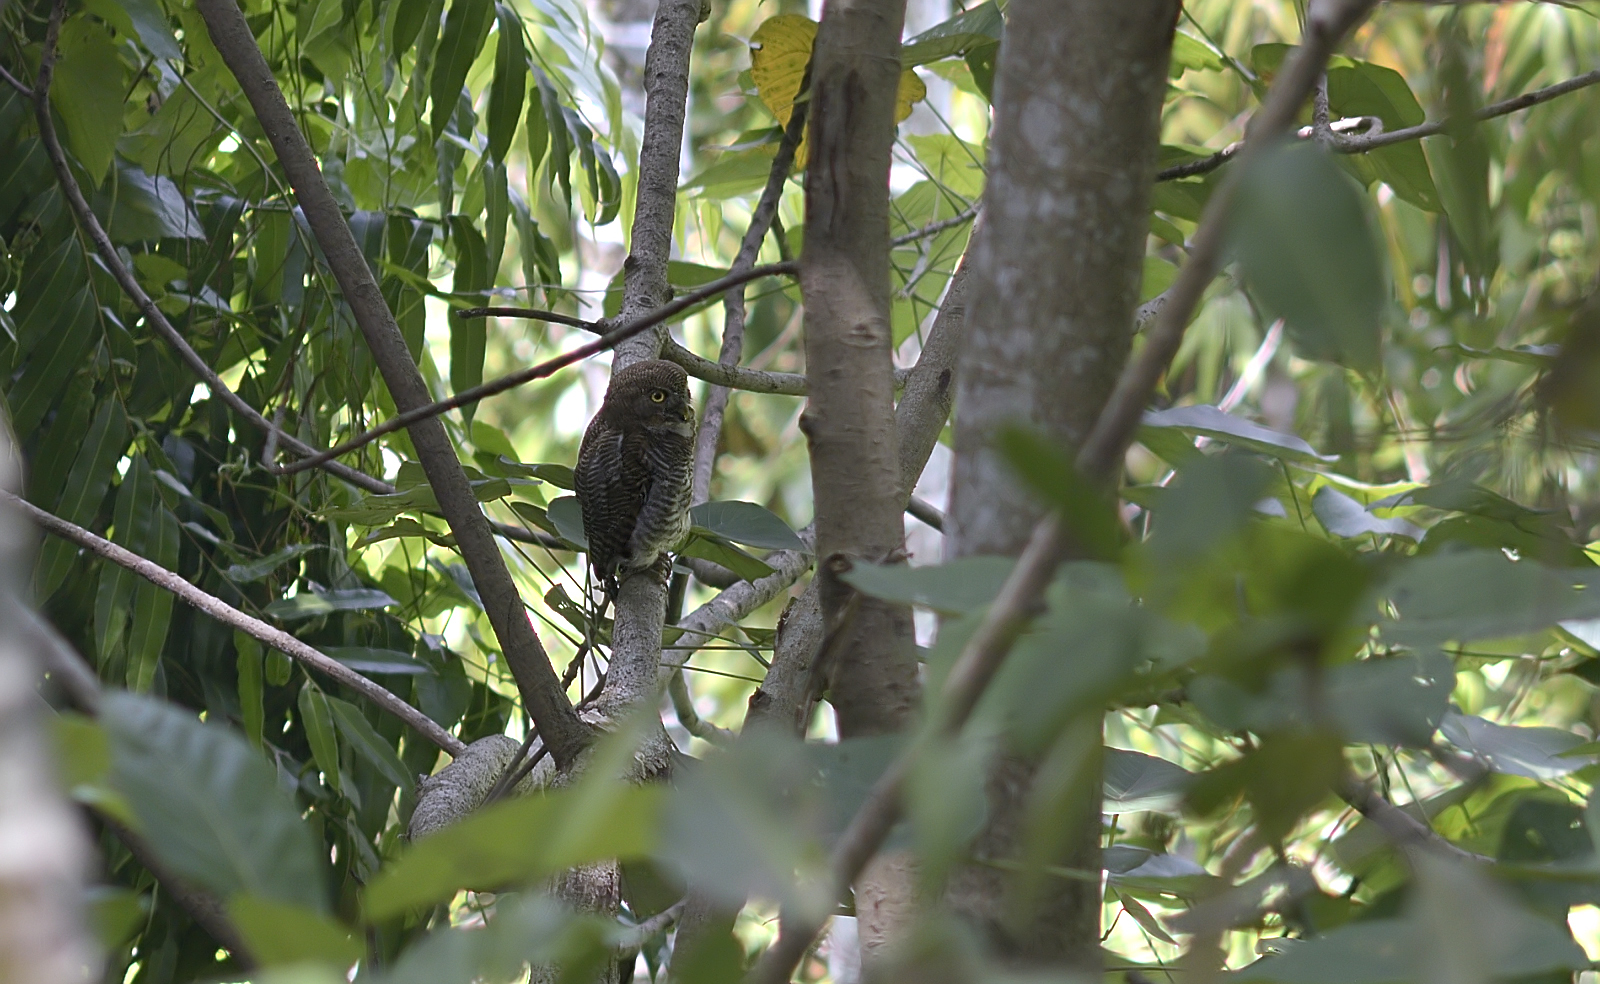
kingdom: Animalia
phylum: Chordata
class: Aves
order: Strigiformes
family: Strigidae
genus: Glaucidium
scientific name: Glaucidium radiatum
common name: Jungle owlet
